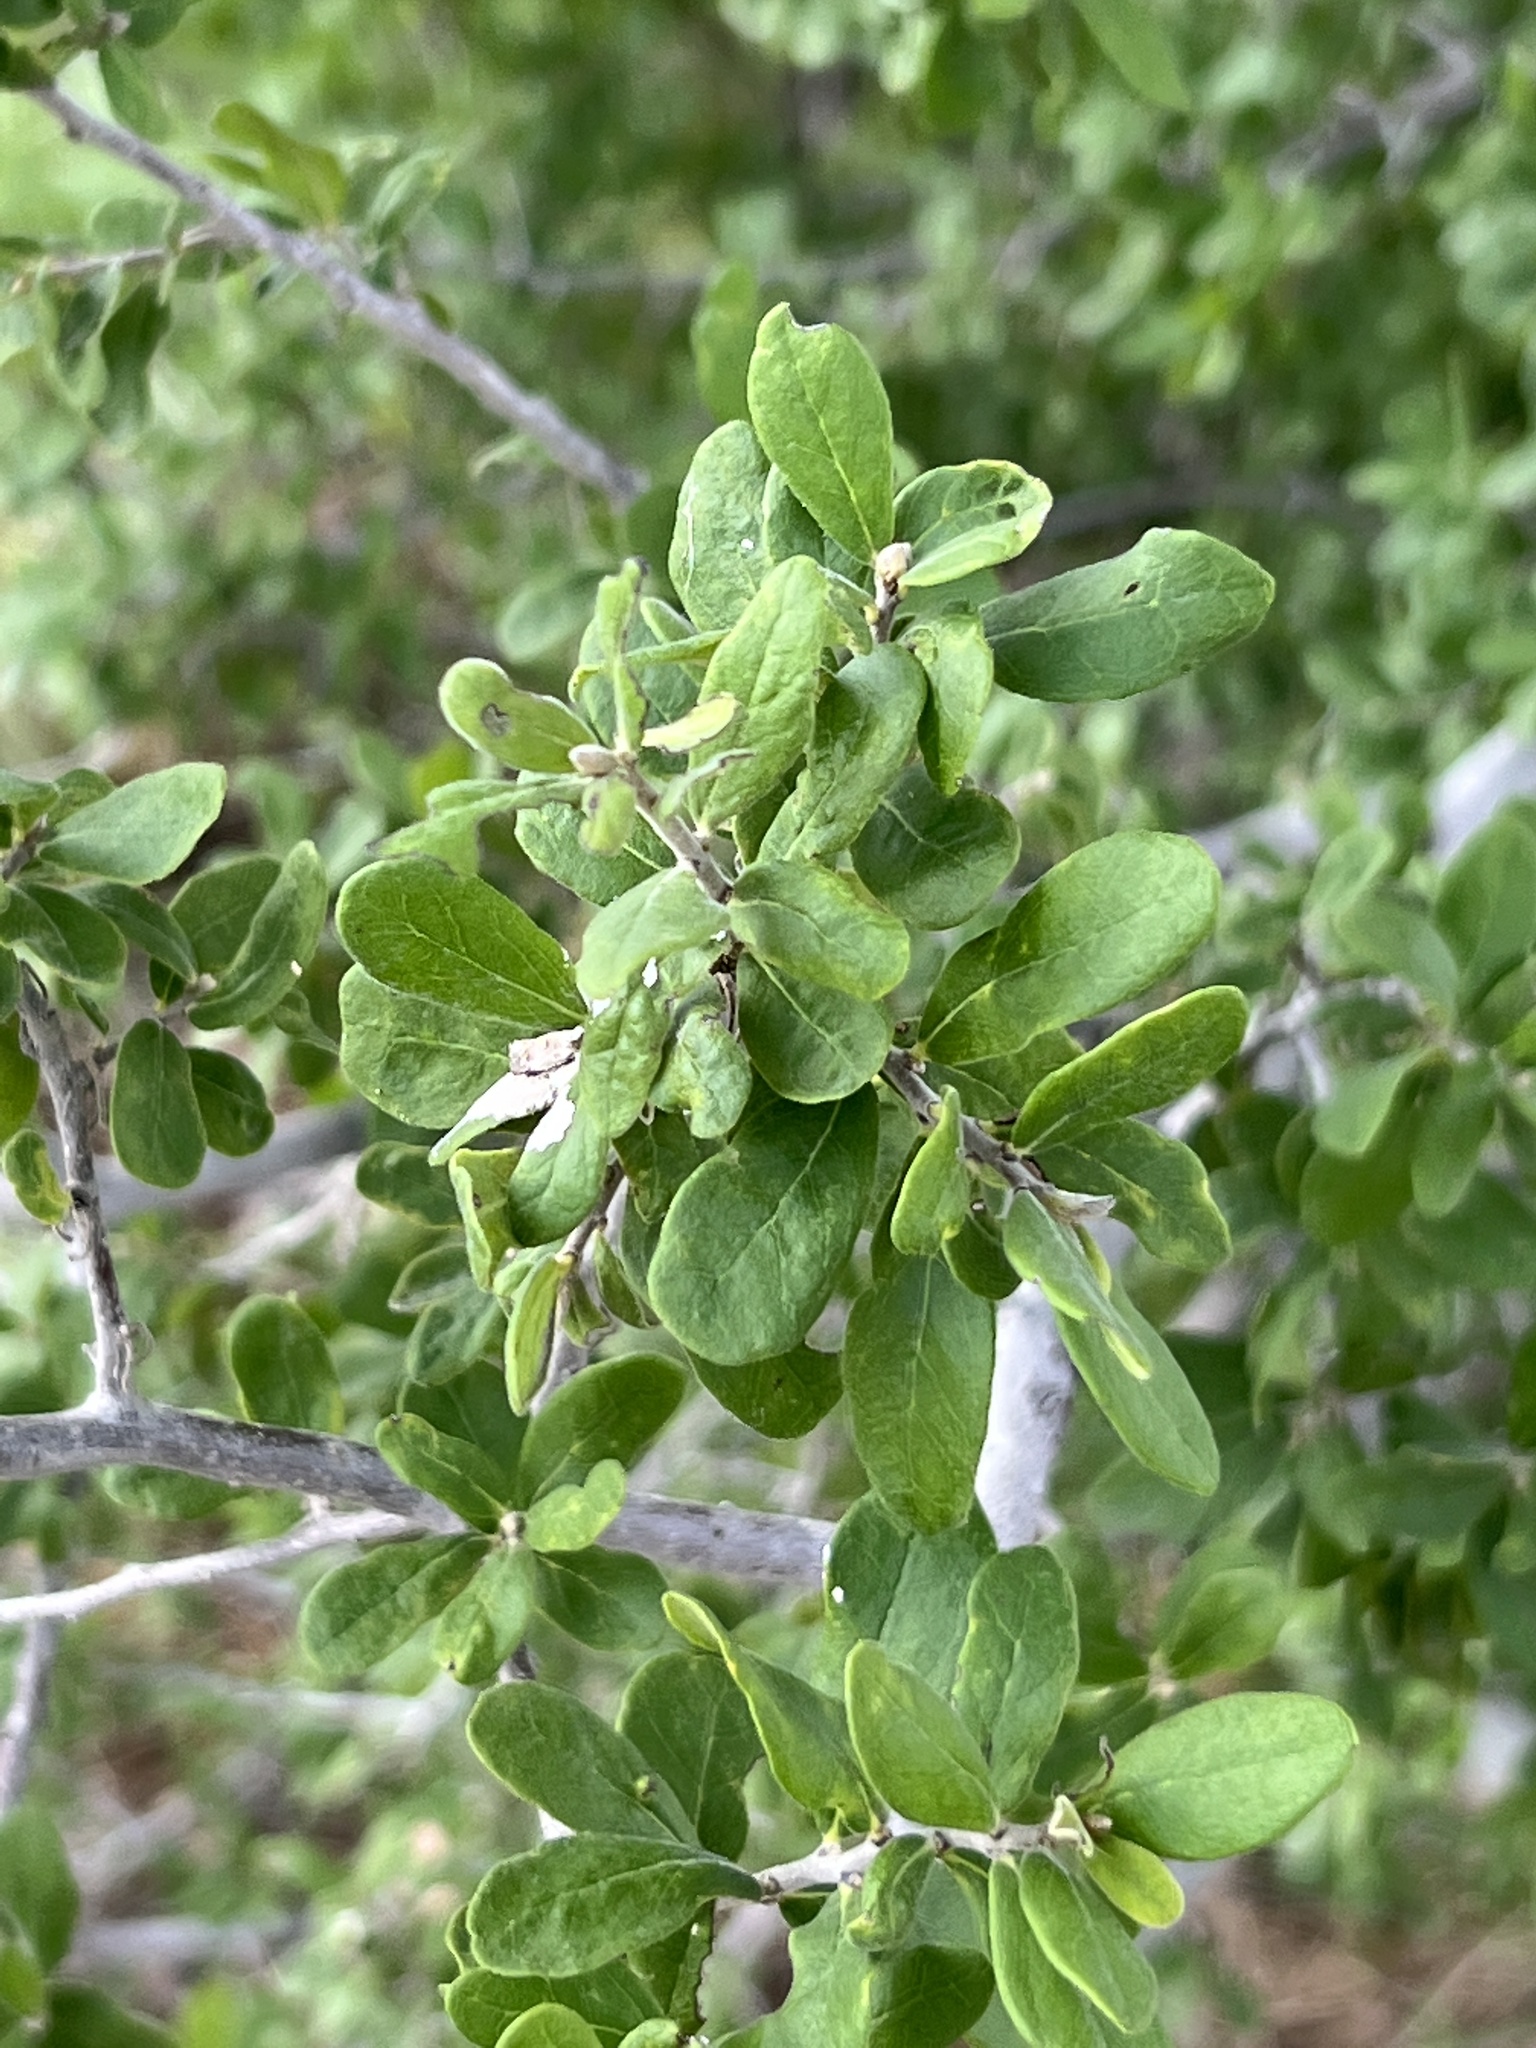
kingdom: Plantae
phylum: Tracheophyta
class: Magnoliopsida
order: Ericales
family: Ebenaceae
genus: Diospyros
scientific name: Diospyros texana
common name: Texas persimmon
